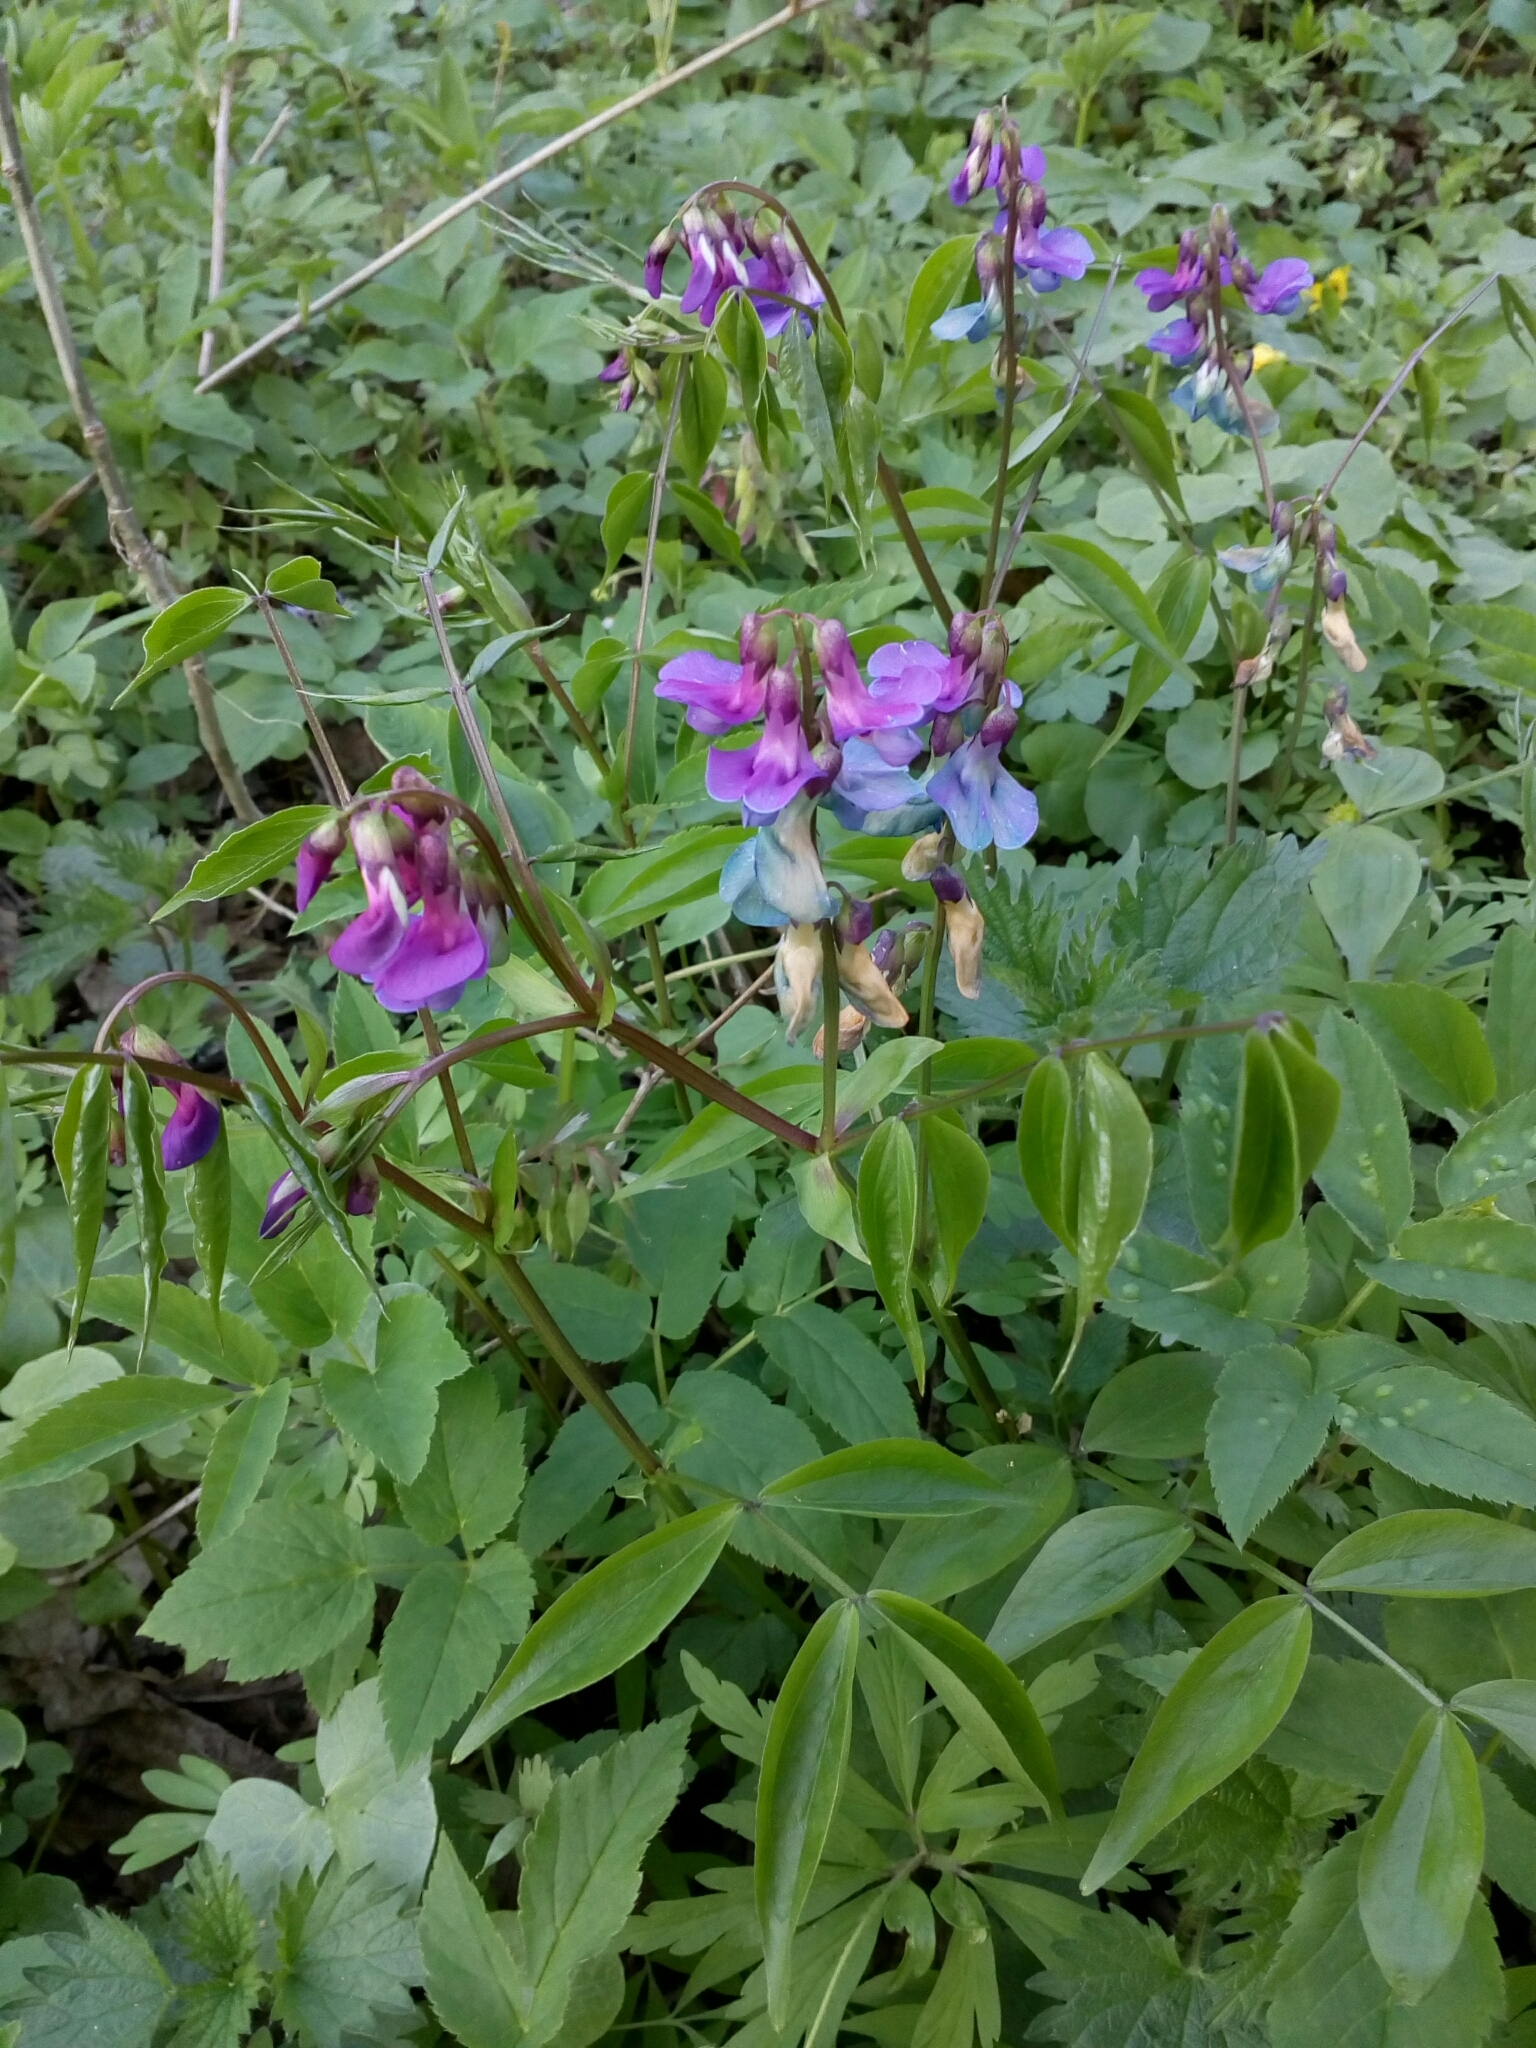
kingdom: Plantae
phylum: Tracheophyta
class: Magnoliopsida
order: Fabales
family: Fabaceae
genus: Lathyrus
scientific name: Lathyrus vernus
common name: Spring pea
